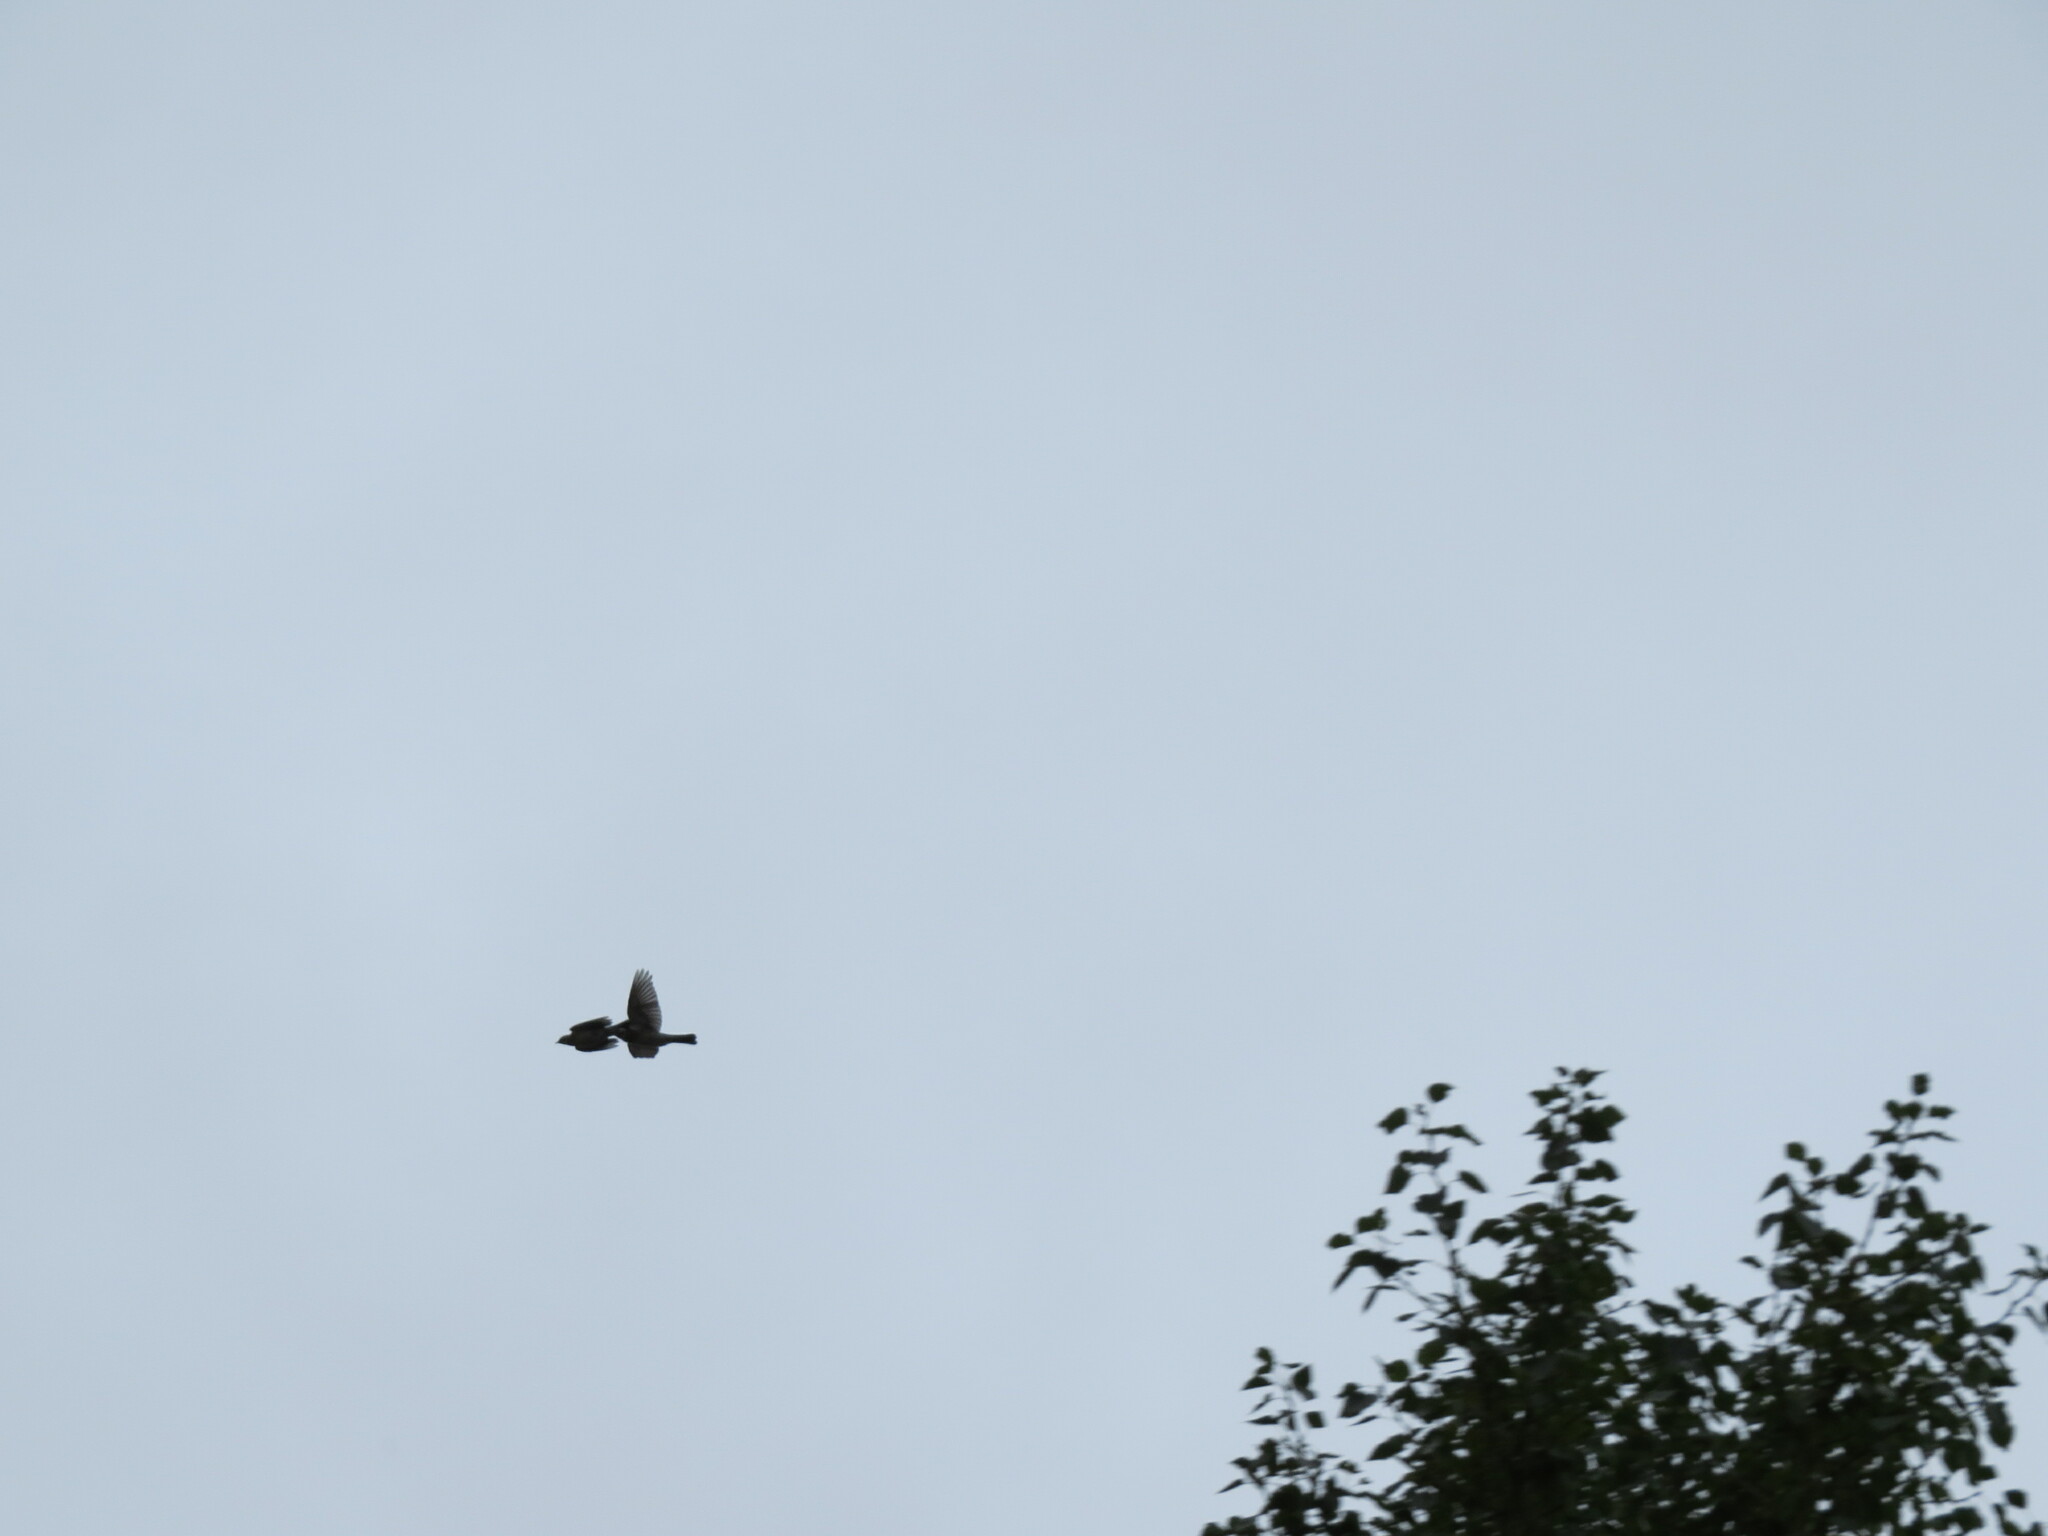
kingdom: Animalia
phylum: Chordata
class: Aves
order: Passeriformes
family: Turdidae
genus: Turdus
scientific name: Turdus pilaris
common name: Fieldfare
